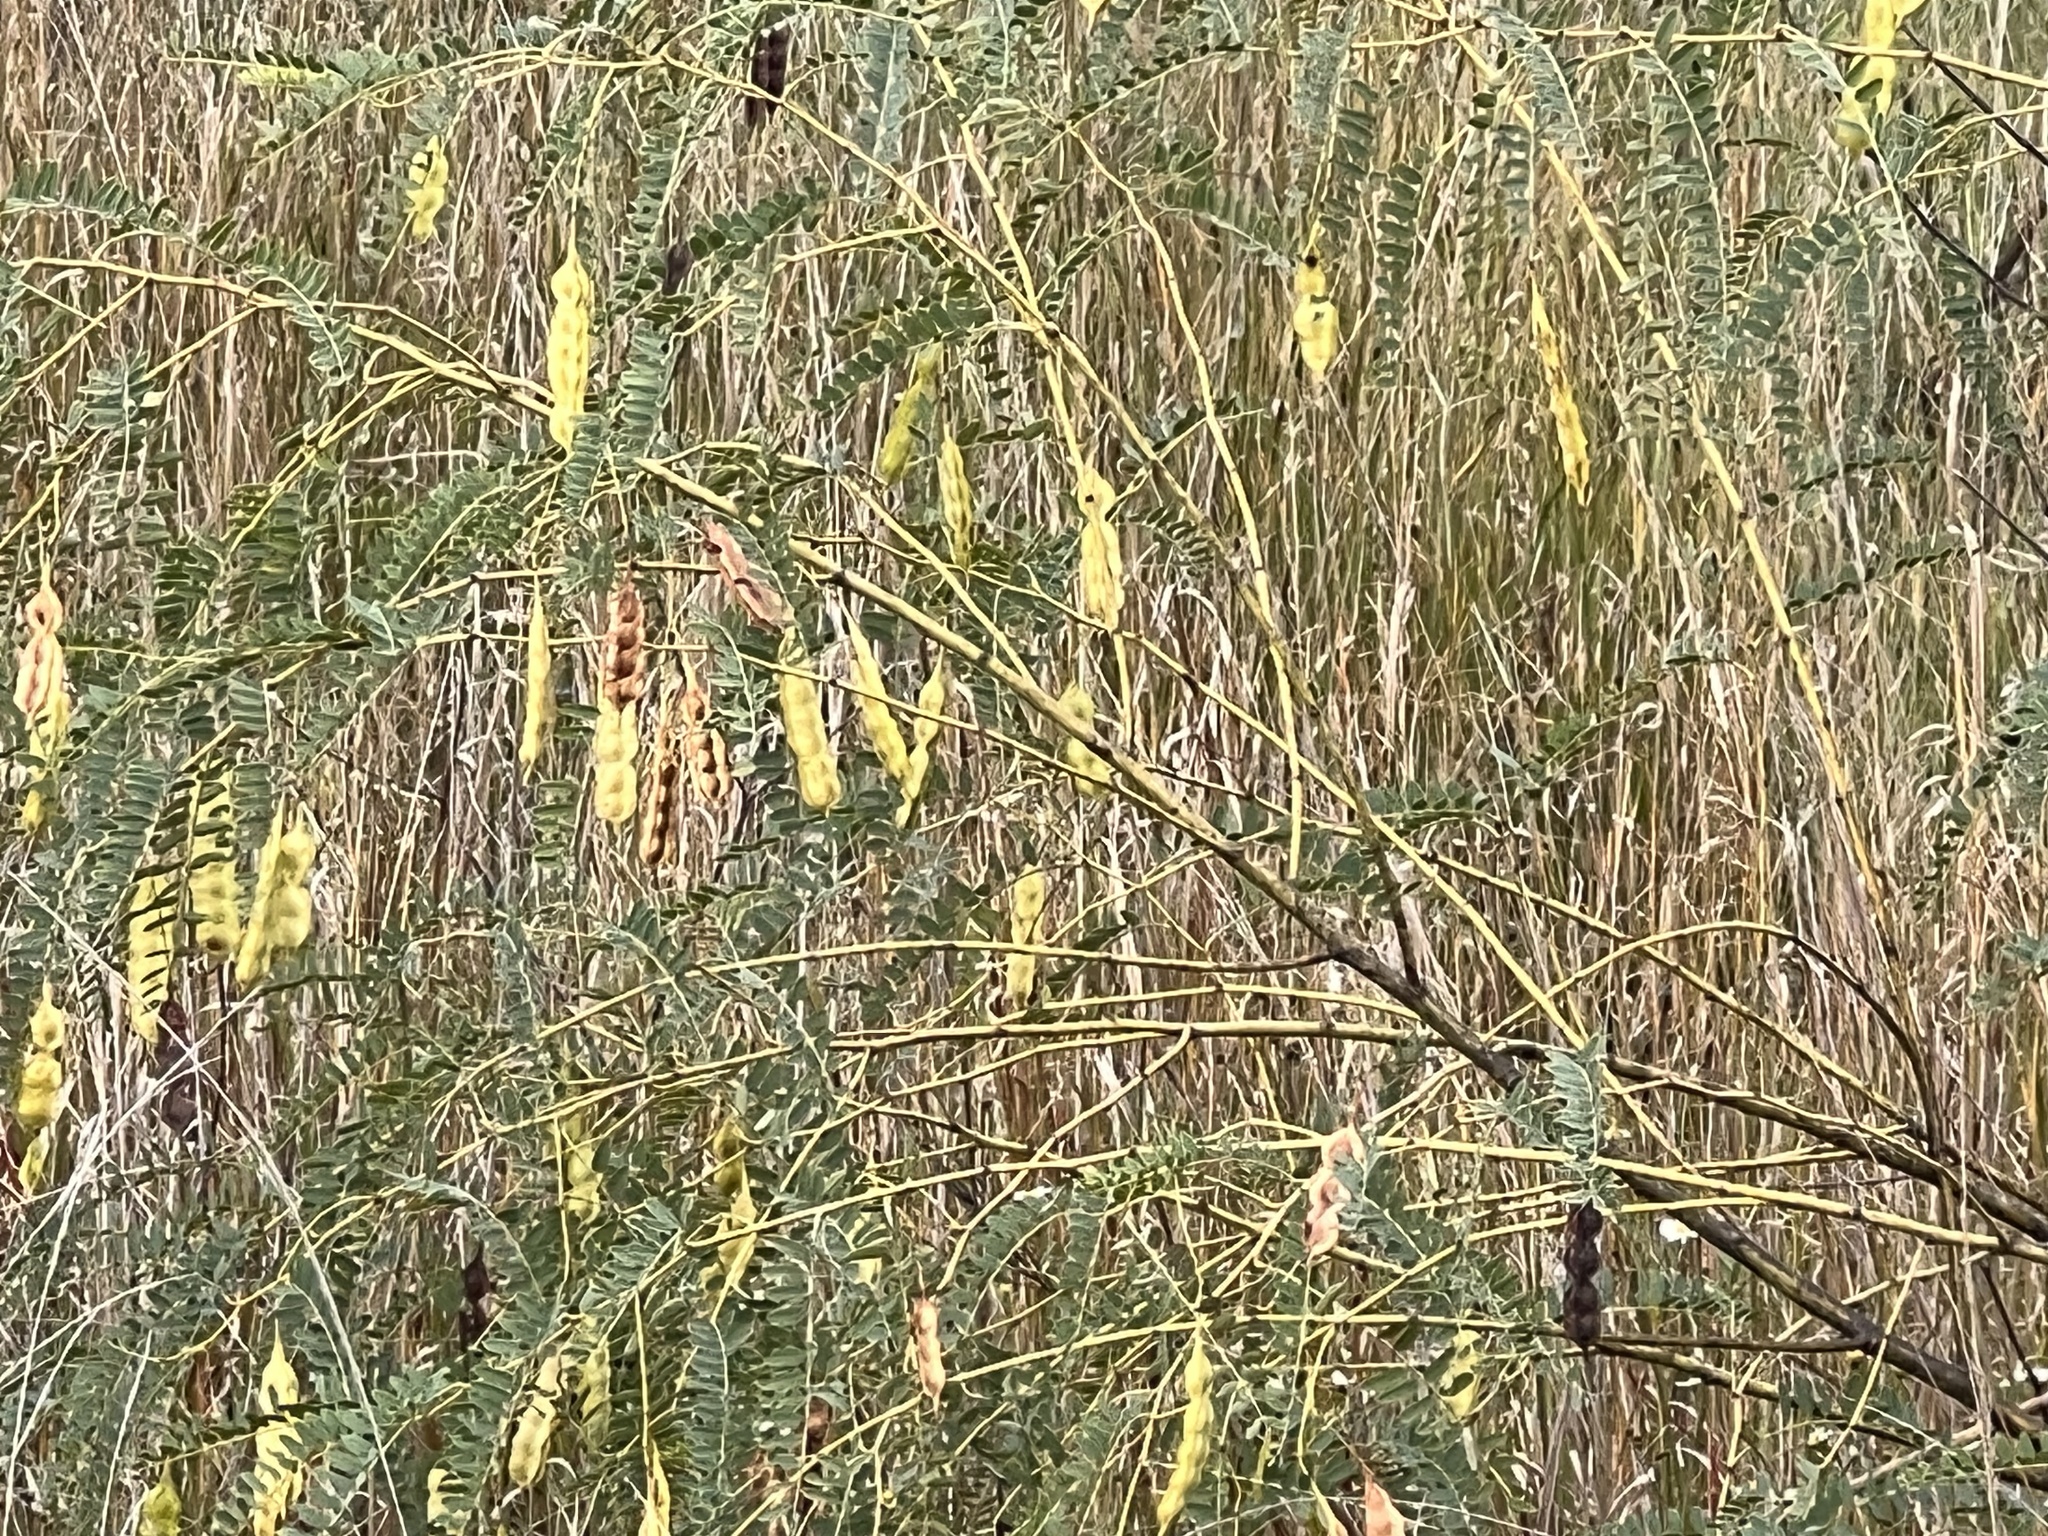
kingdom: Plantae
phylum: Tracheophyta
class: Magnoliopsida
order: Fabales
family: Fabaceae
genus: Sesbania
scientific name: Sesbania drummondii
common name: Poison-bean
